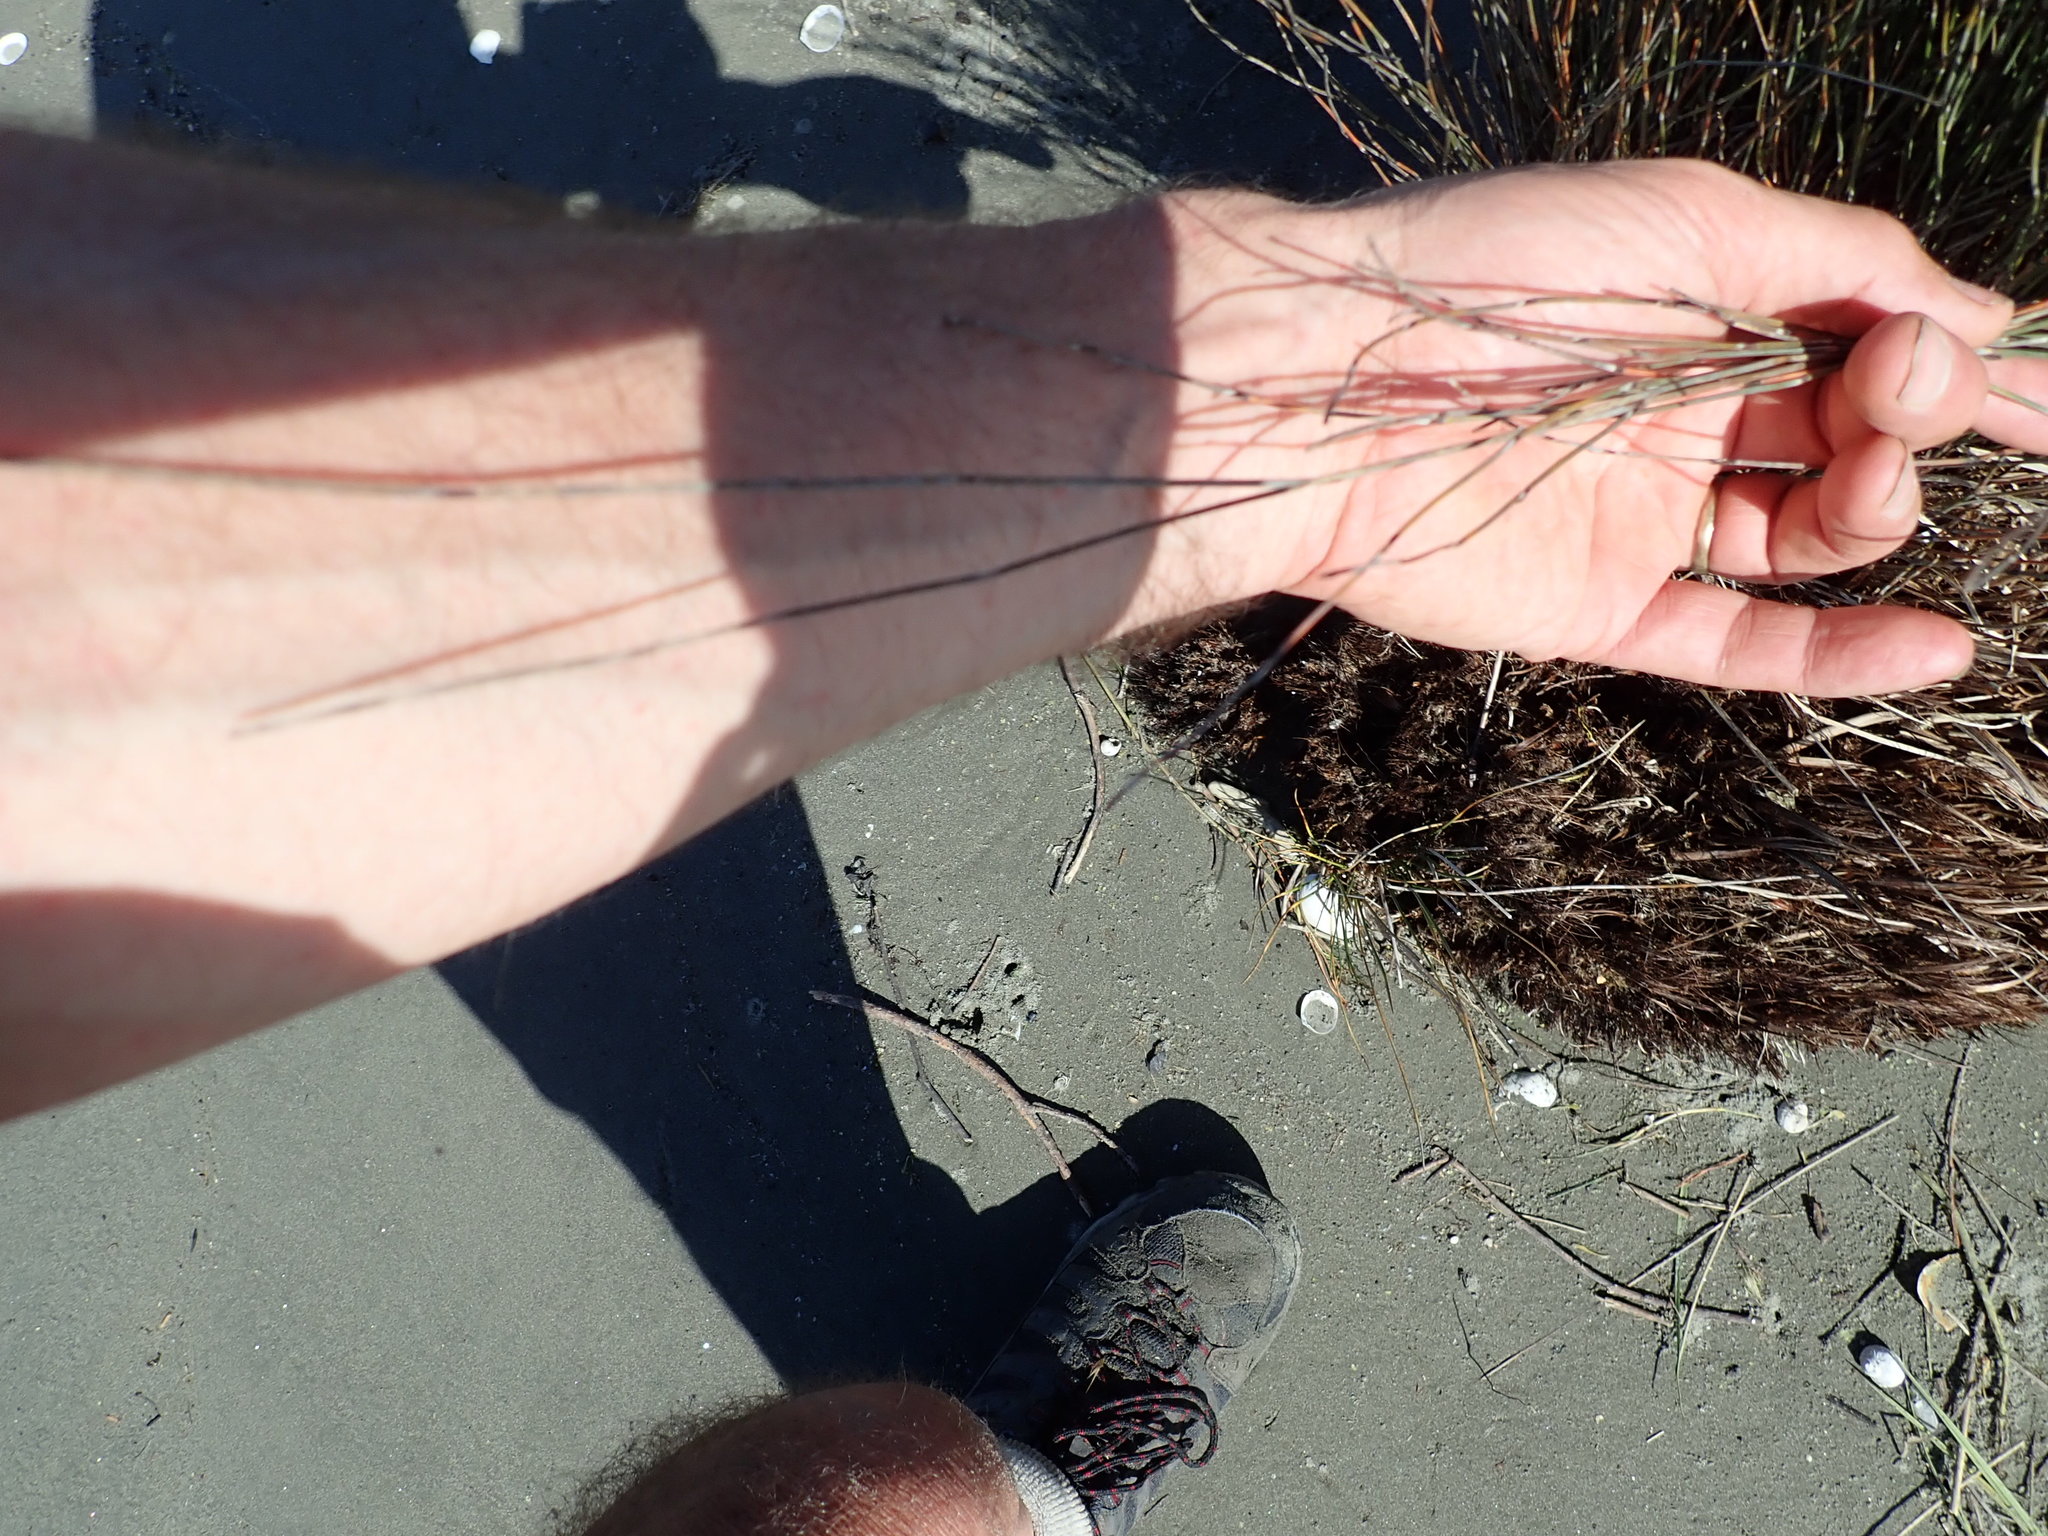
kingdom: Plantae
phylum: Tracheophyta
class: Liliopsida
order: Poales
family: Restionaceae
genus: Apodasmia
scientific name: Apodasmia similis
